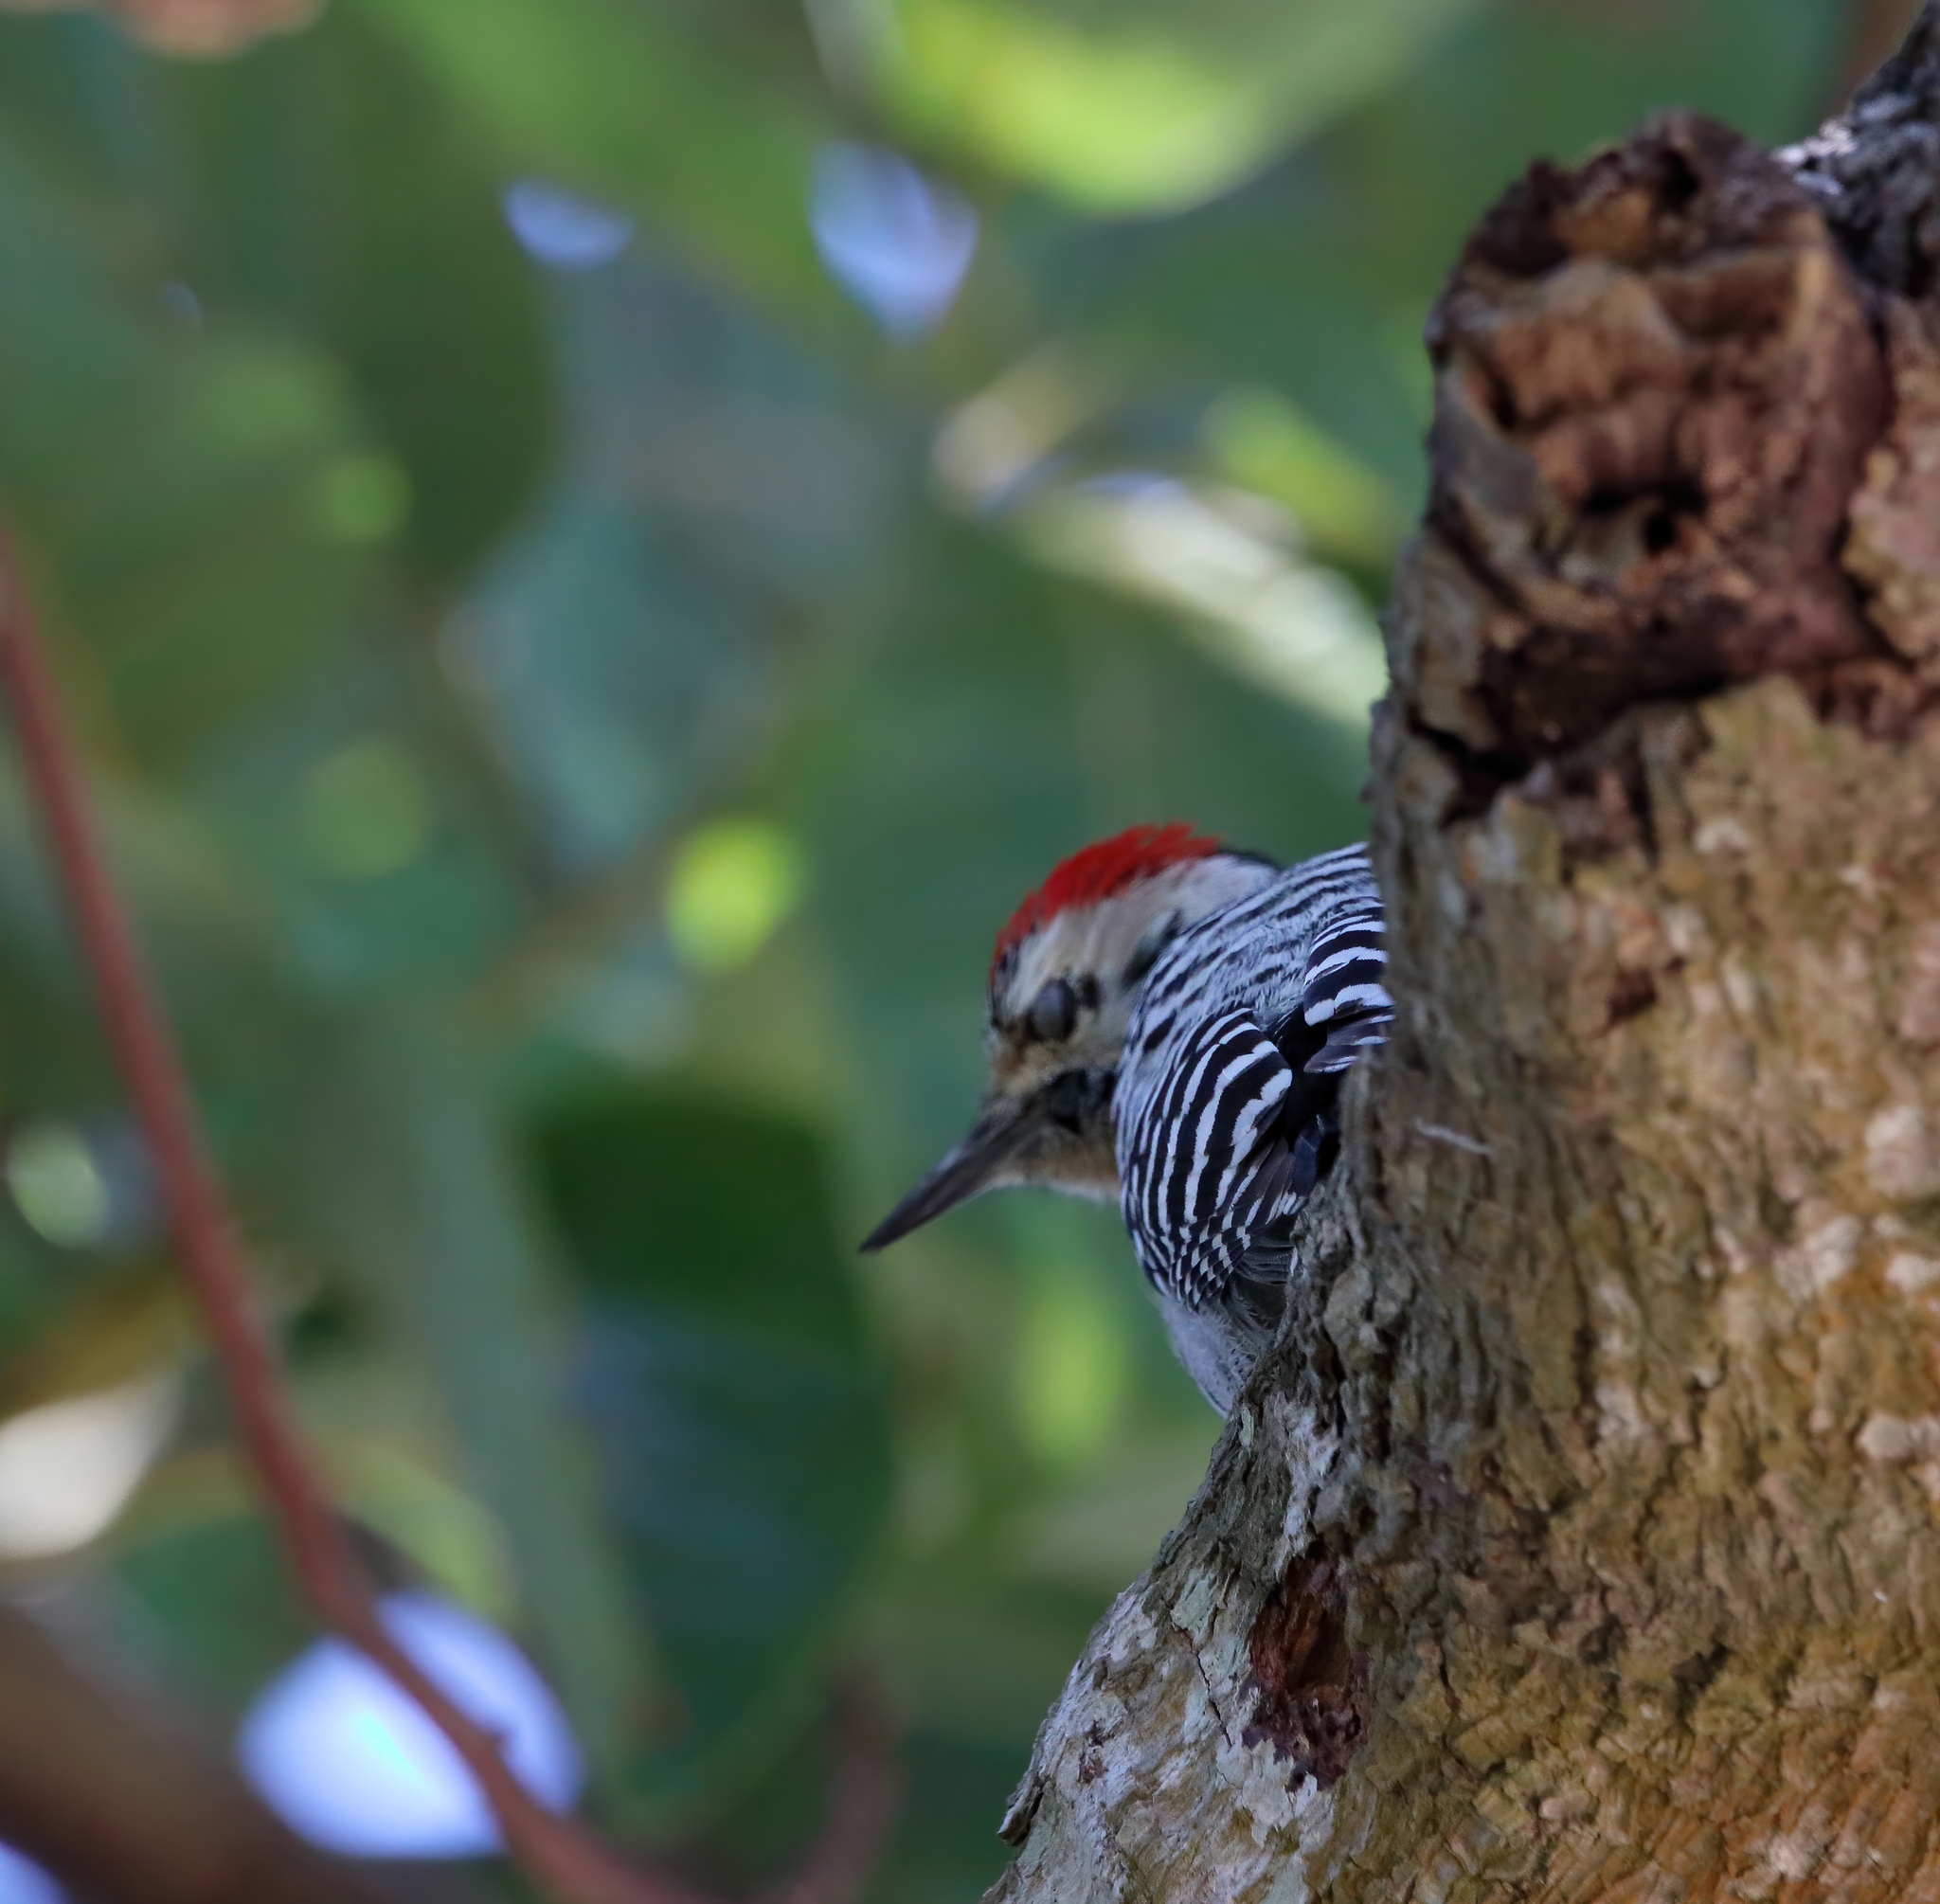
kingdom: Animalia
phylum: Chordata
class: Aves
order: Piciformes
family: Picidae
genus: Dryobates
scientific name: Dryobates scalaris
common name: Ladder-backed woodpecker
